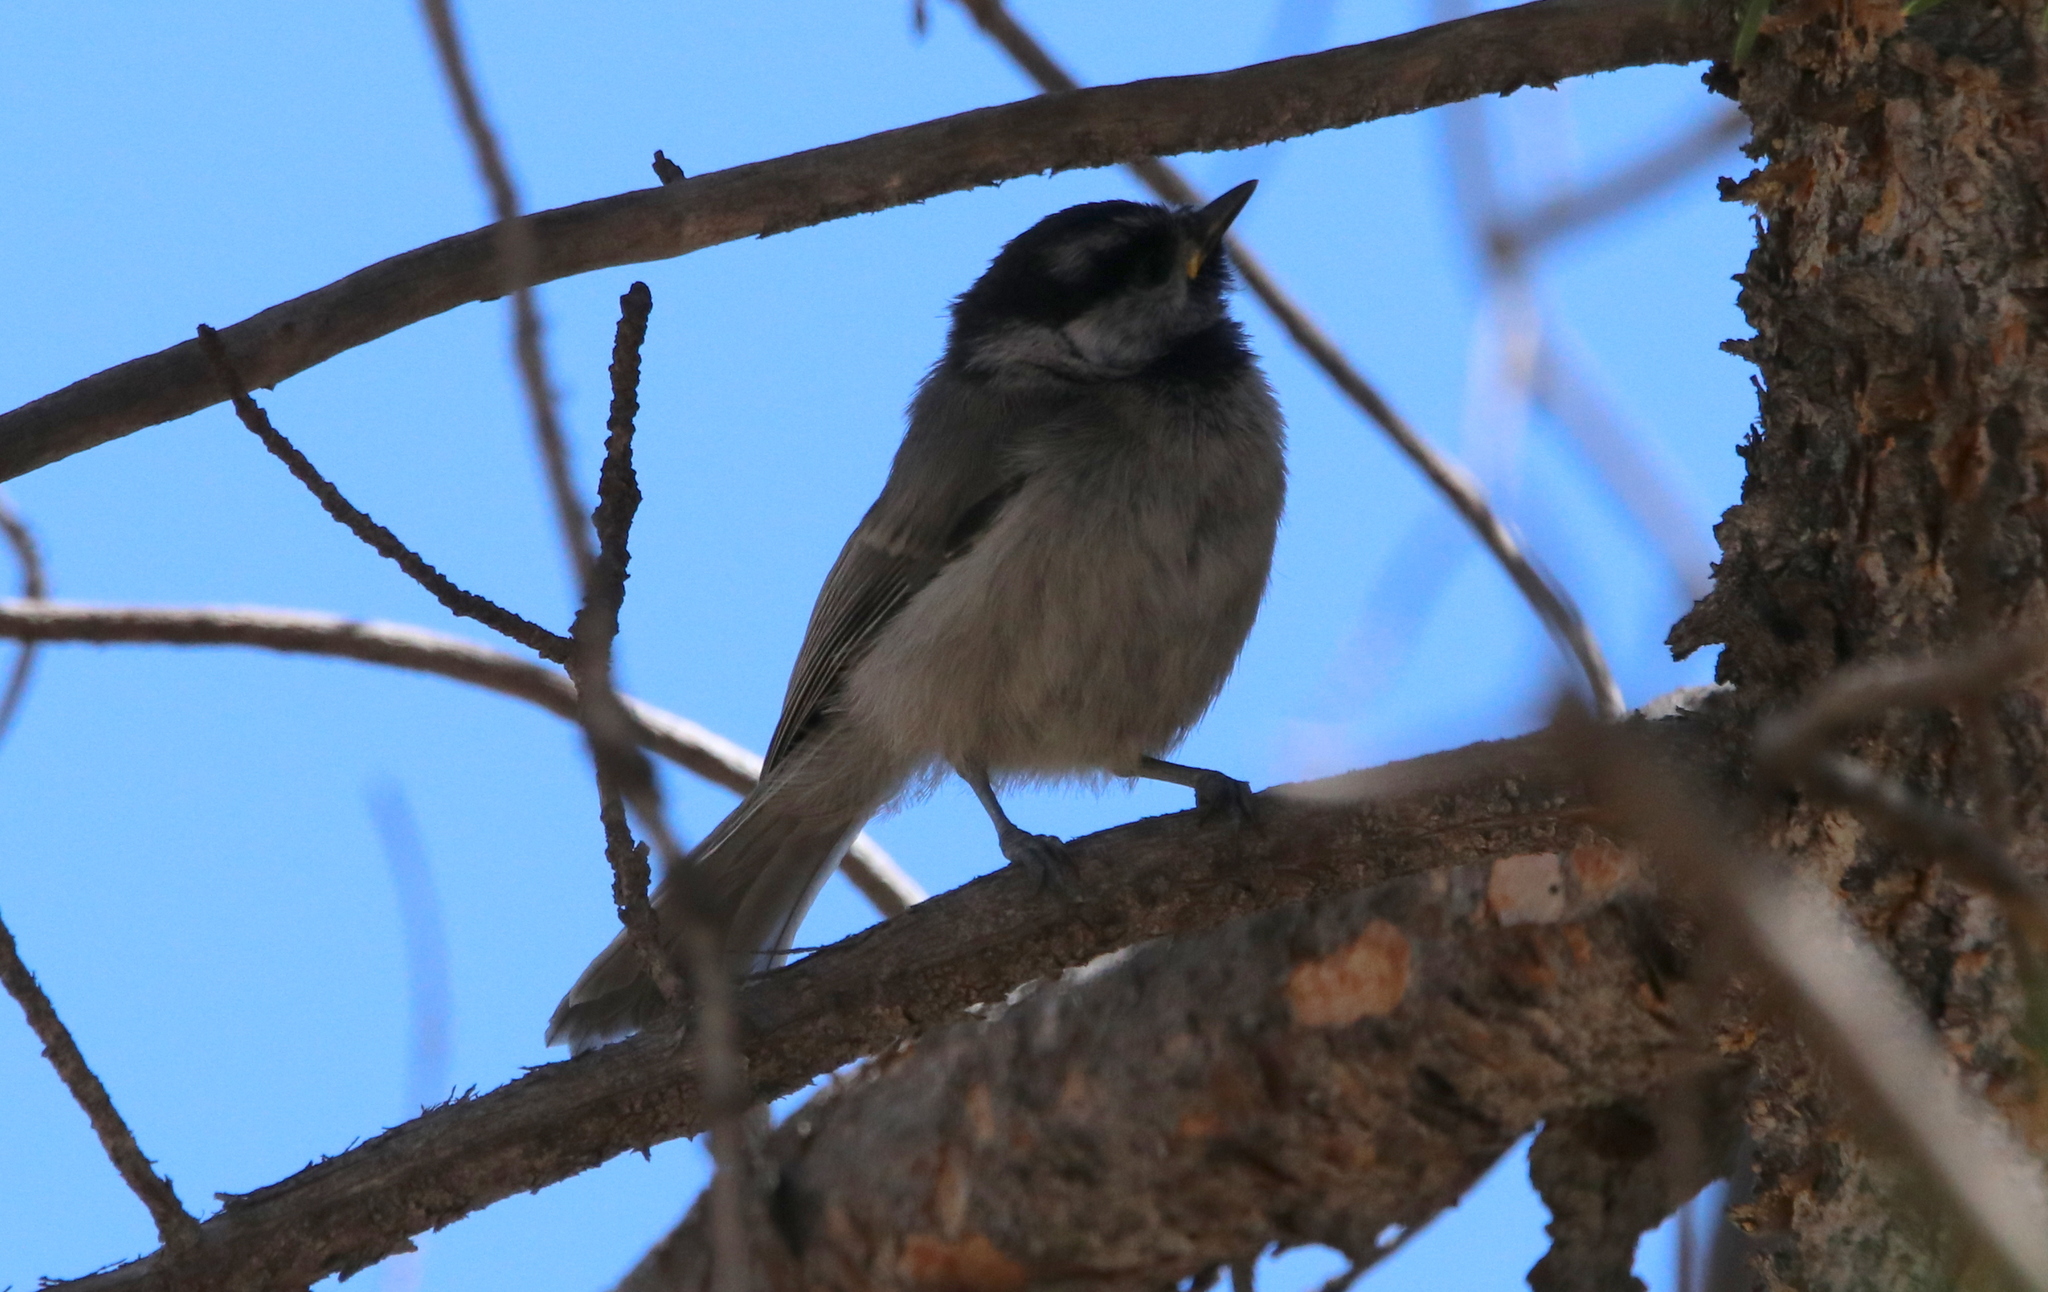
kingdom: Animalia
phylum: Chordata
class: Aves
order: Passeriformes
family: Paridae
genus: Poecile
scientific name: Poecile gambeli
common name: Mountain chickadee
